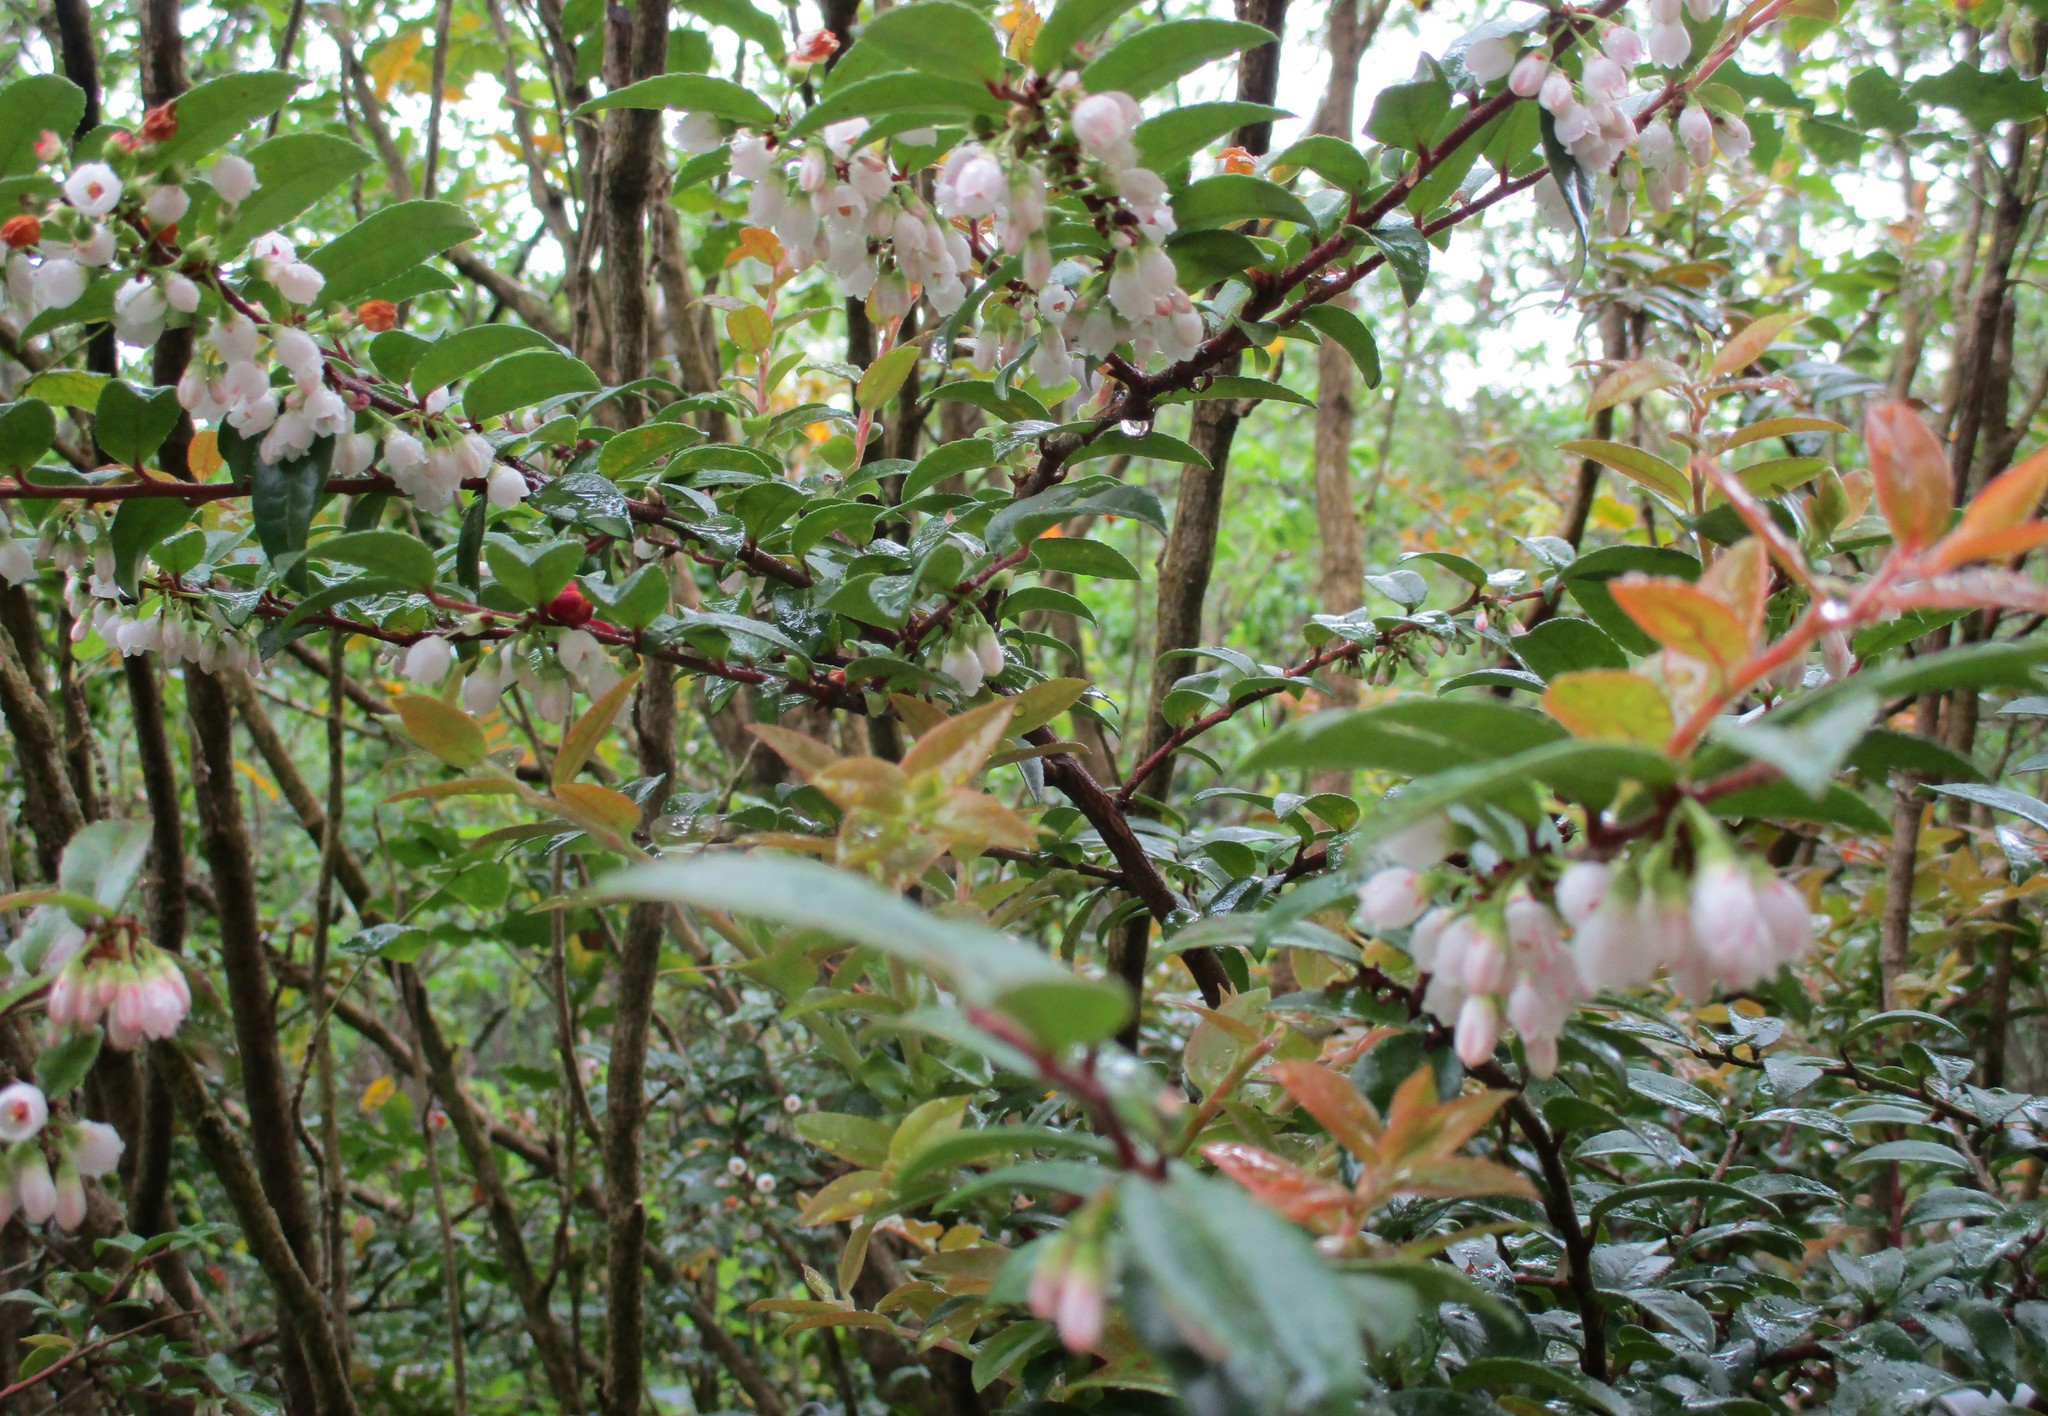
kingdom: Plantae
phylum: Tracheophyta
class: Magnoliopsida
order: Ericales
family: Ericaceae
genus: Vaccinium
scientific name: Vaccinium ovatum
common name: California-huckleberry
